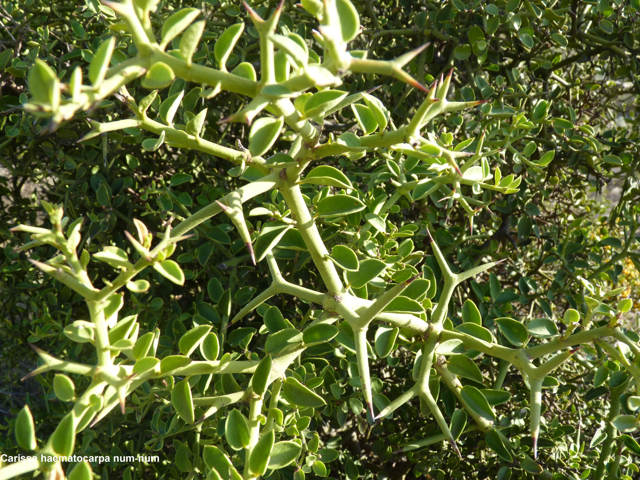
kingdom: Plantae
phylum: Tracheophyta
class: Magnoliopsida
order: Gentianales
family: Apocynaceae
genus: Carissa
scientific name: Carissa haematocarpa
